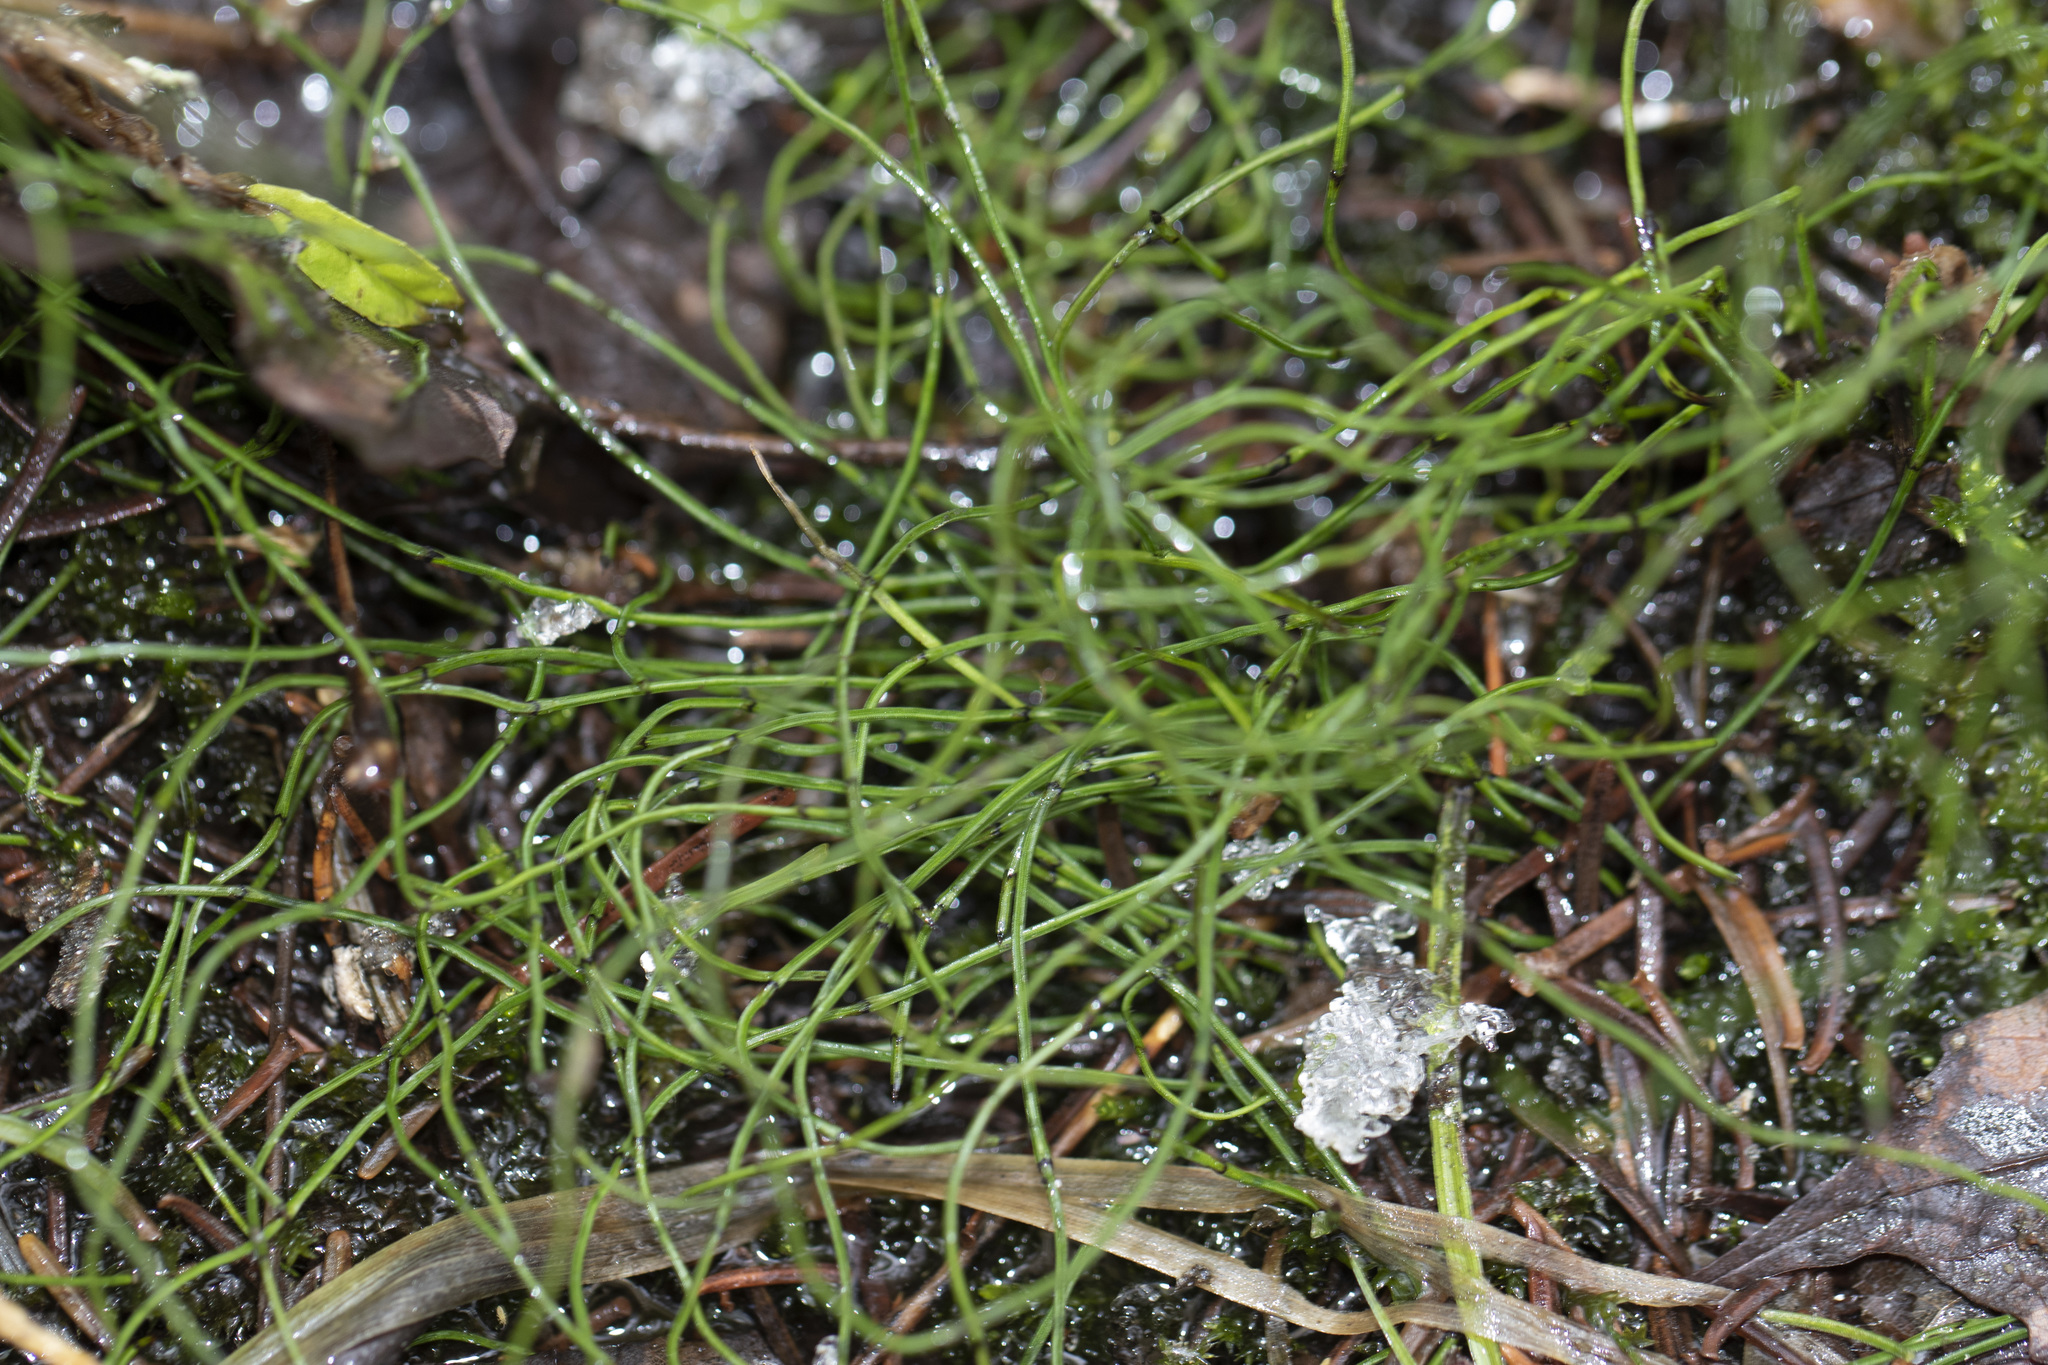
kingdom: Plantae
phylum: Tracheophyta
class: Polypodiopsida
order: Equisetales
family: Equisetaceae
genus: Equisetum
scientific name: Equisetum scirpoides
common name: Delicate horsetail
